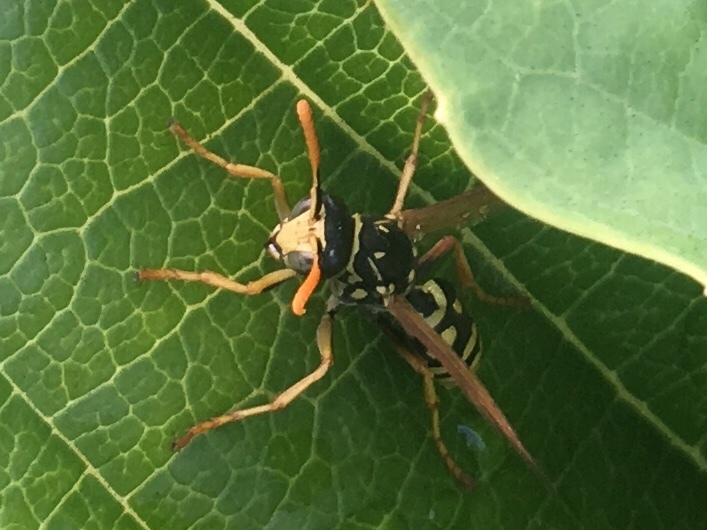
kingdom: Animalia
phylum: Arthropoda
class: Insecta
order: Hymenoptera
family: Eumenidae
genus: Polistes
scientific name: Polistes dominula
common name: Paper wasp
